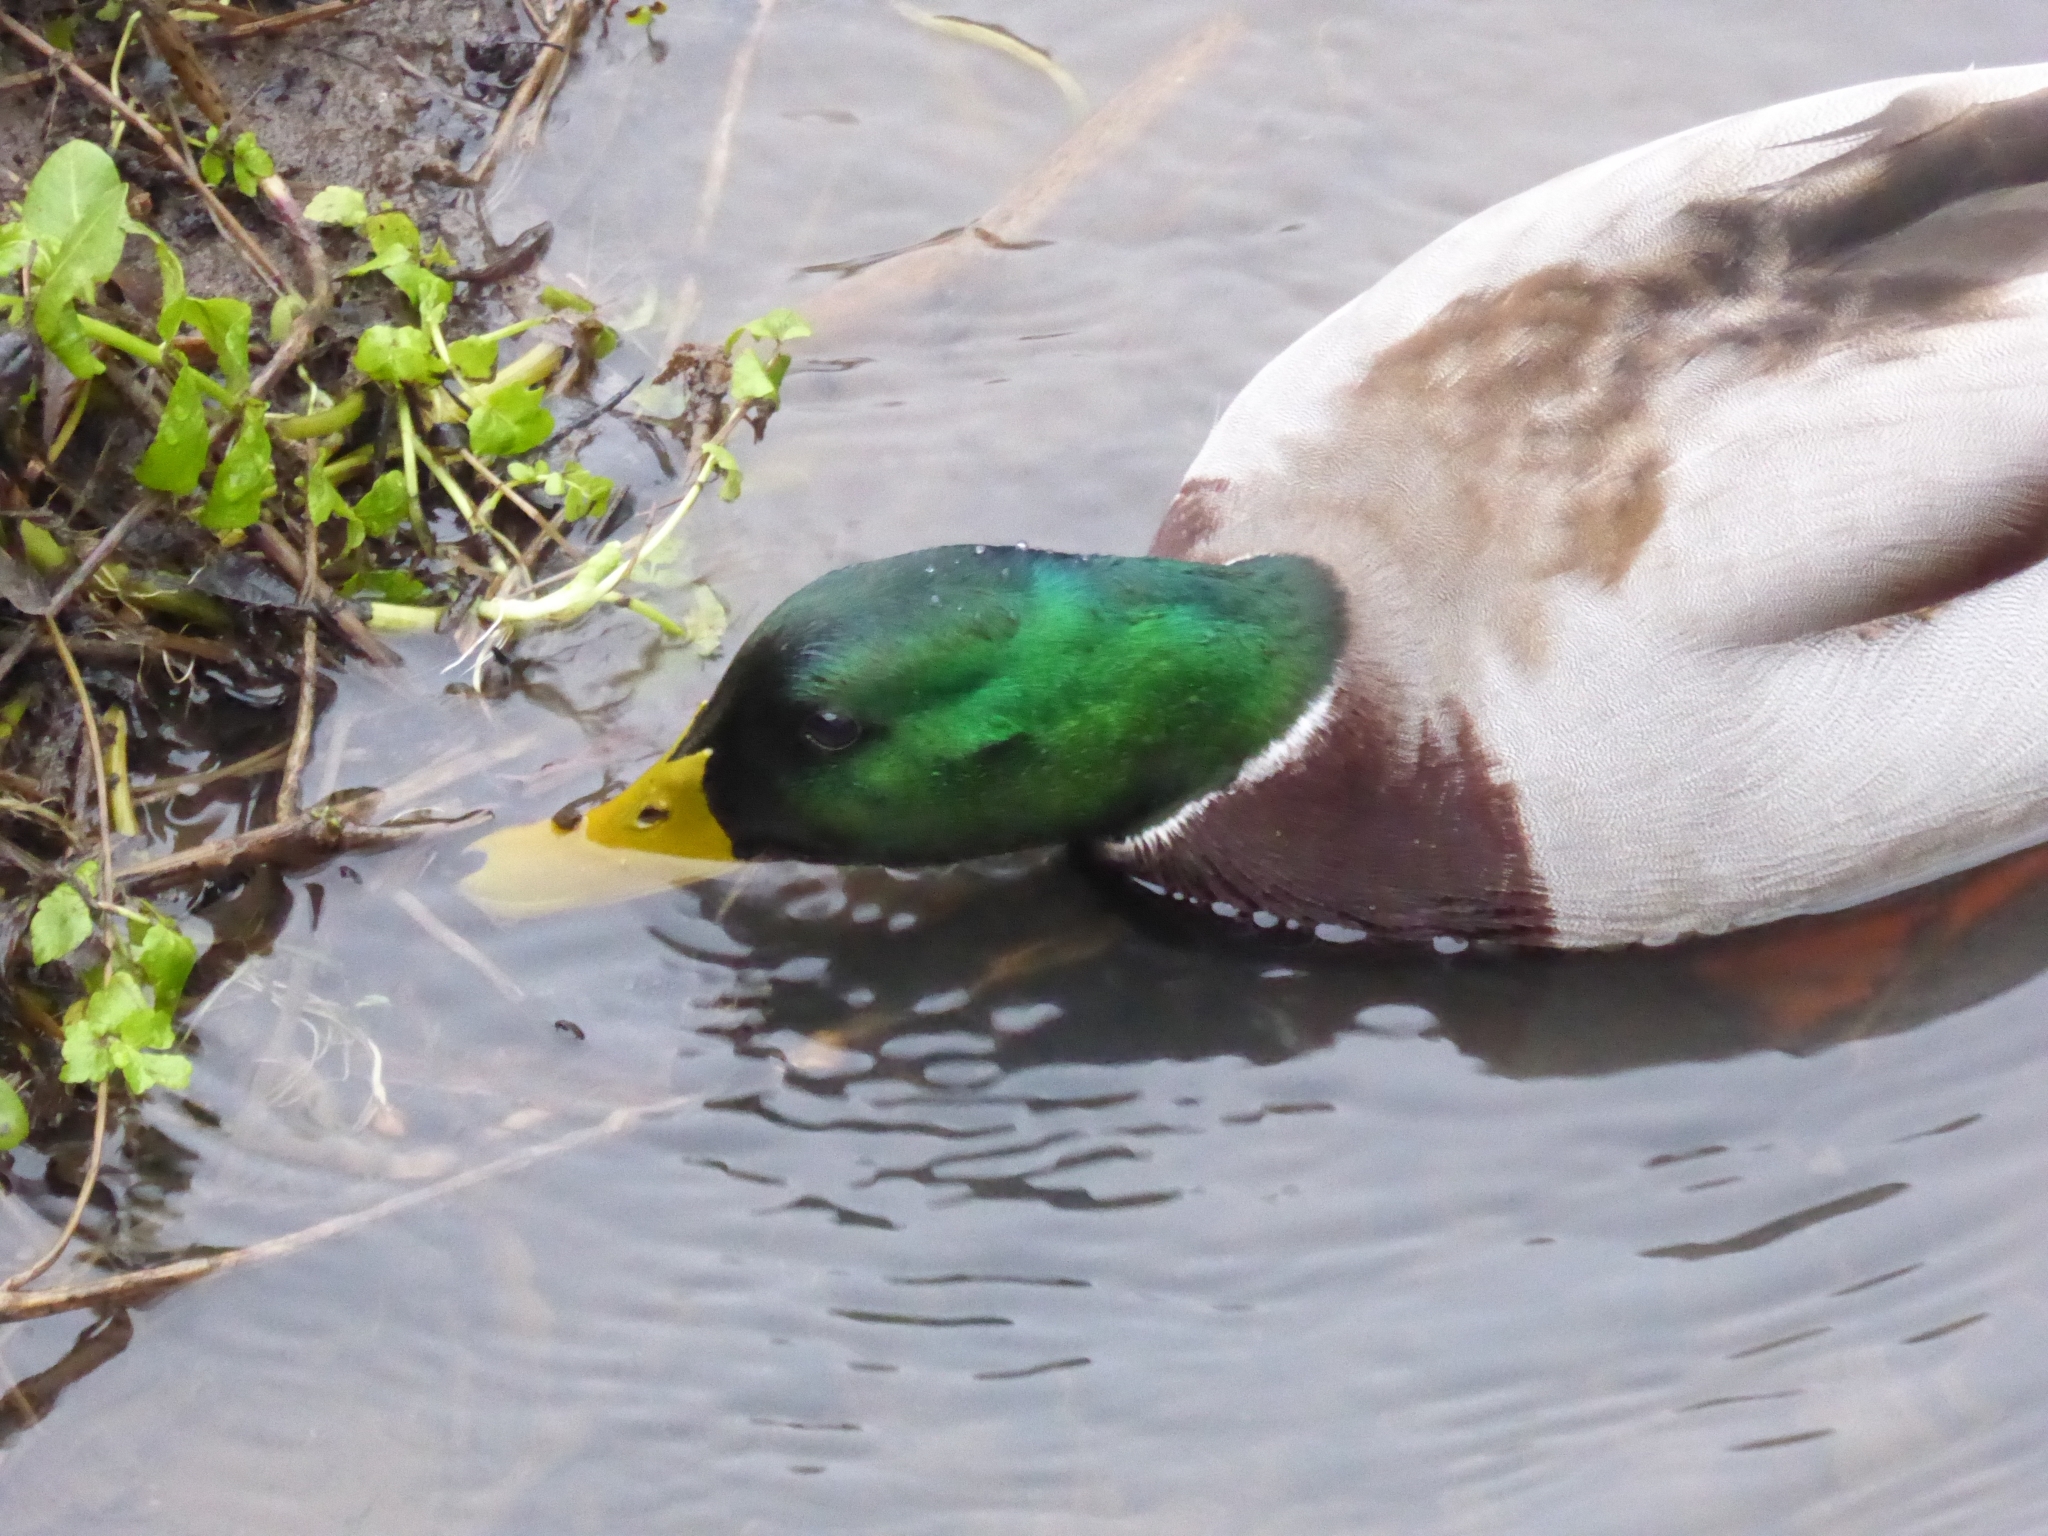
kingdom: Animalia
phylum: Chordata
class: Aves
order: Anseriformes
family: Anatidae
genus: Anas
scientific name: Anas platyrhynchos
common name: Mallard
